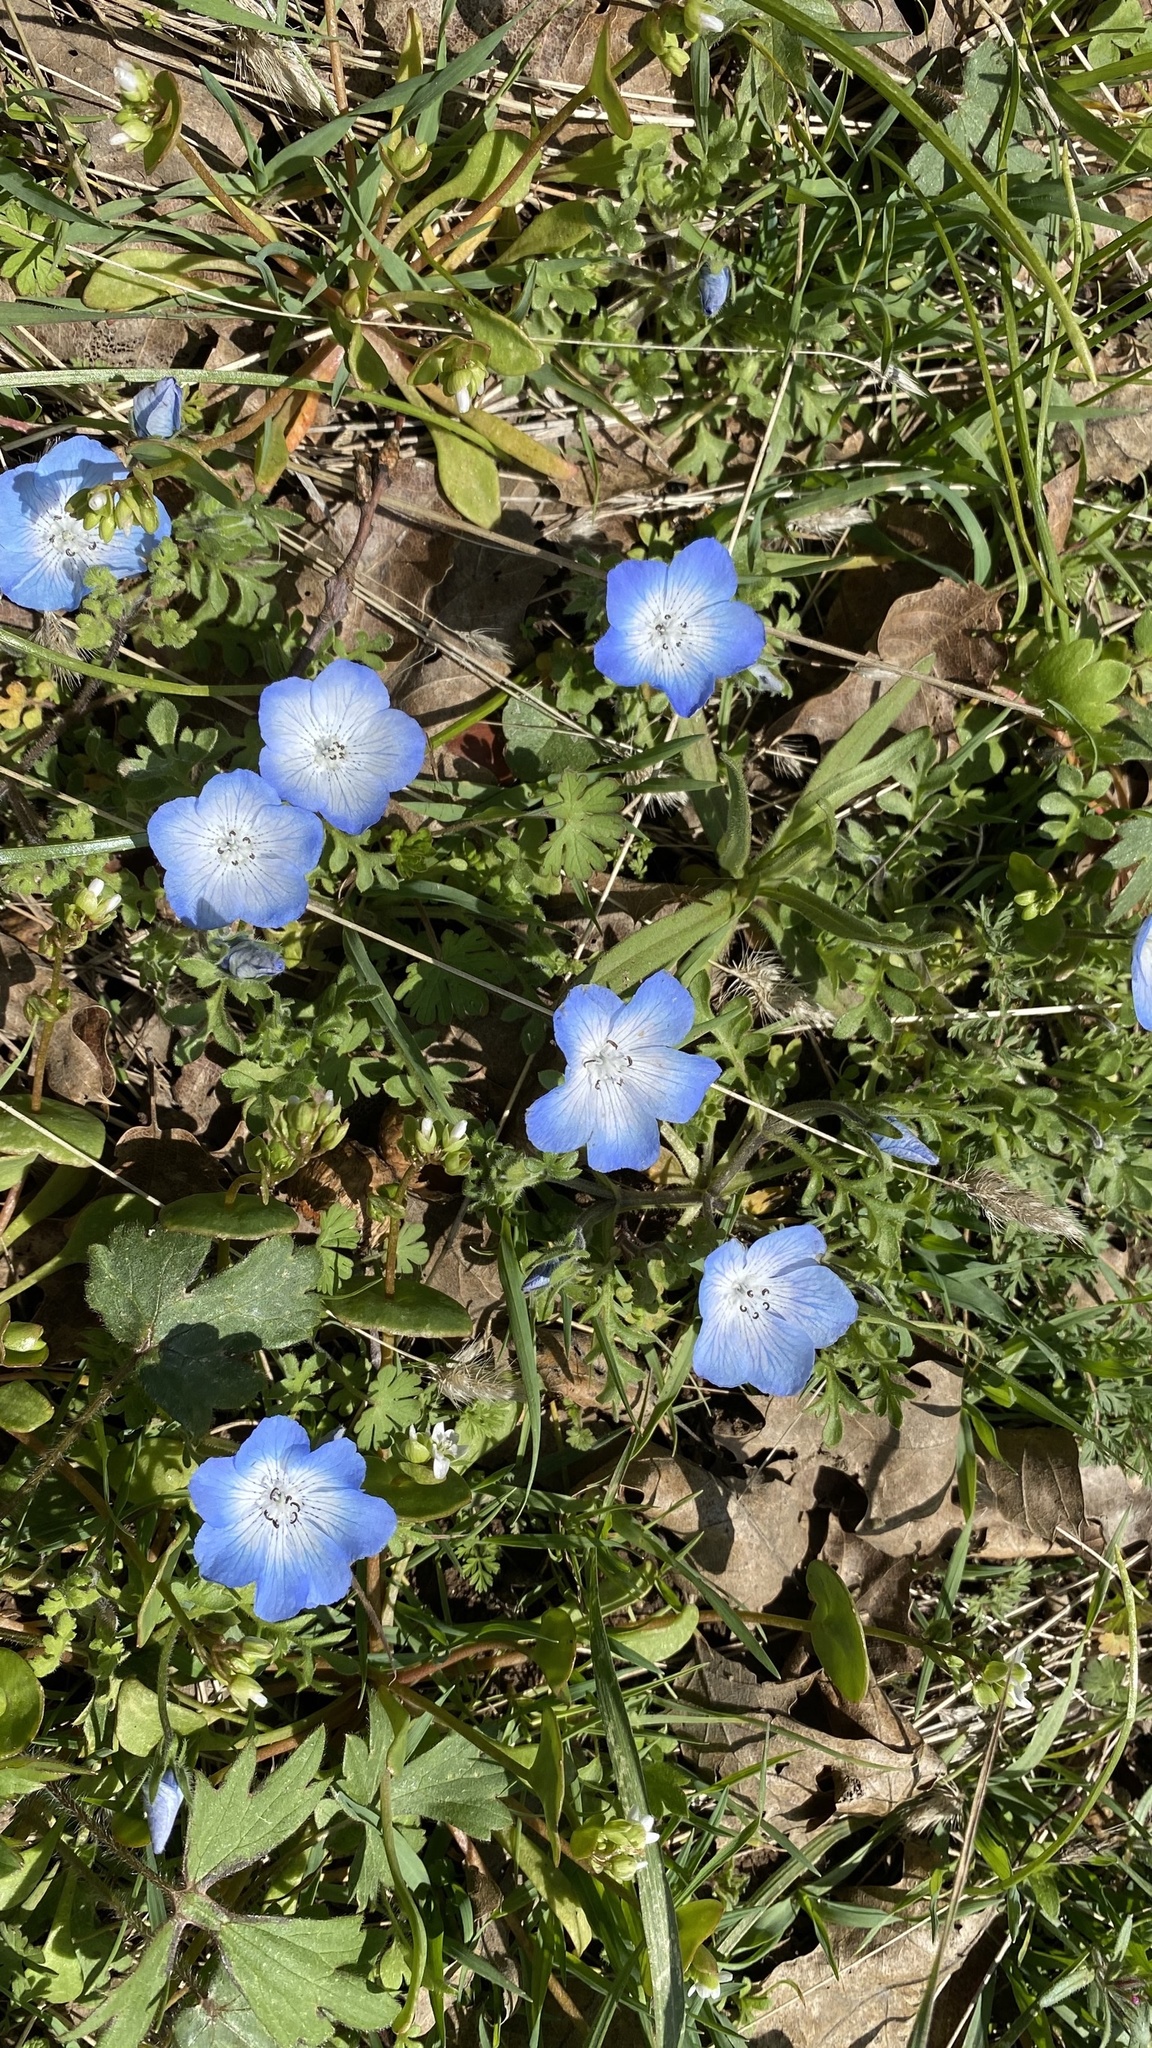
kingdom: Plantae
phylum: Tracheophyta
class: Magnoliopsida
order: Boraginales
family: Hydrophyllaceae
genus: Nemophila
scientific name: Nemophila menziesii
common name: Baby's-blue-eyes
